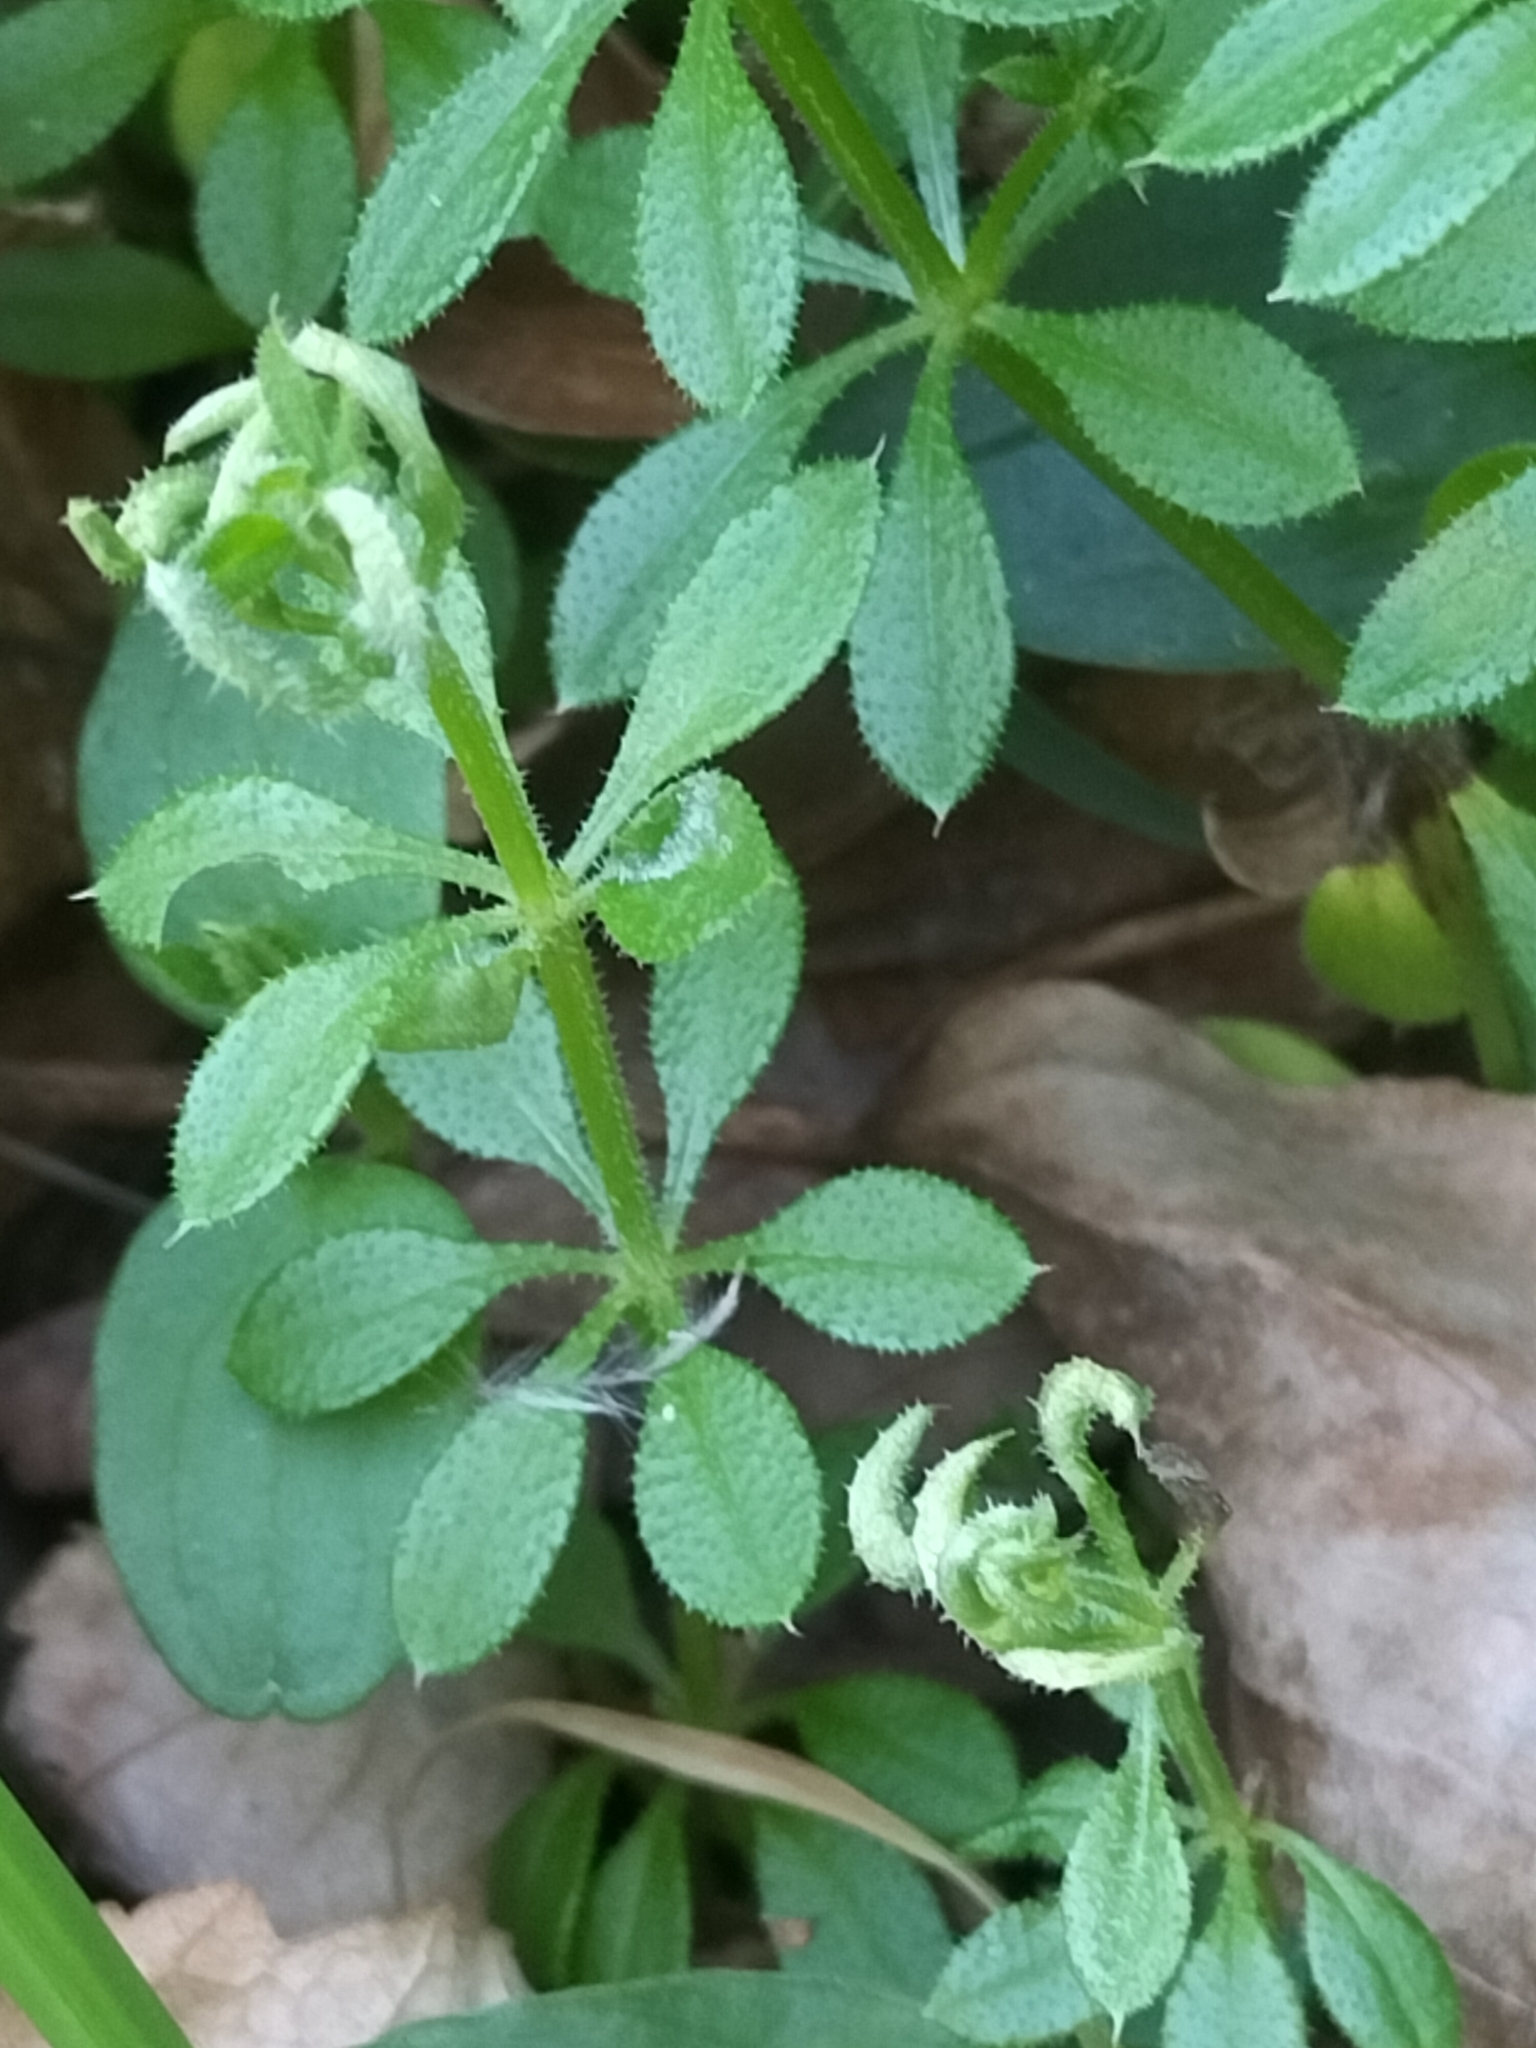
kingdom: Animalia
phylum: Arthropoda
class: Arachnida
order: Trombidiformes
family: Eriophyidae
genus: Cecidophyes
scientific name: Cecidophyes rouhollahi
